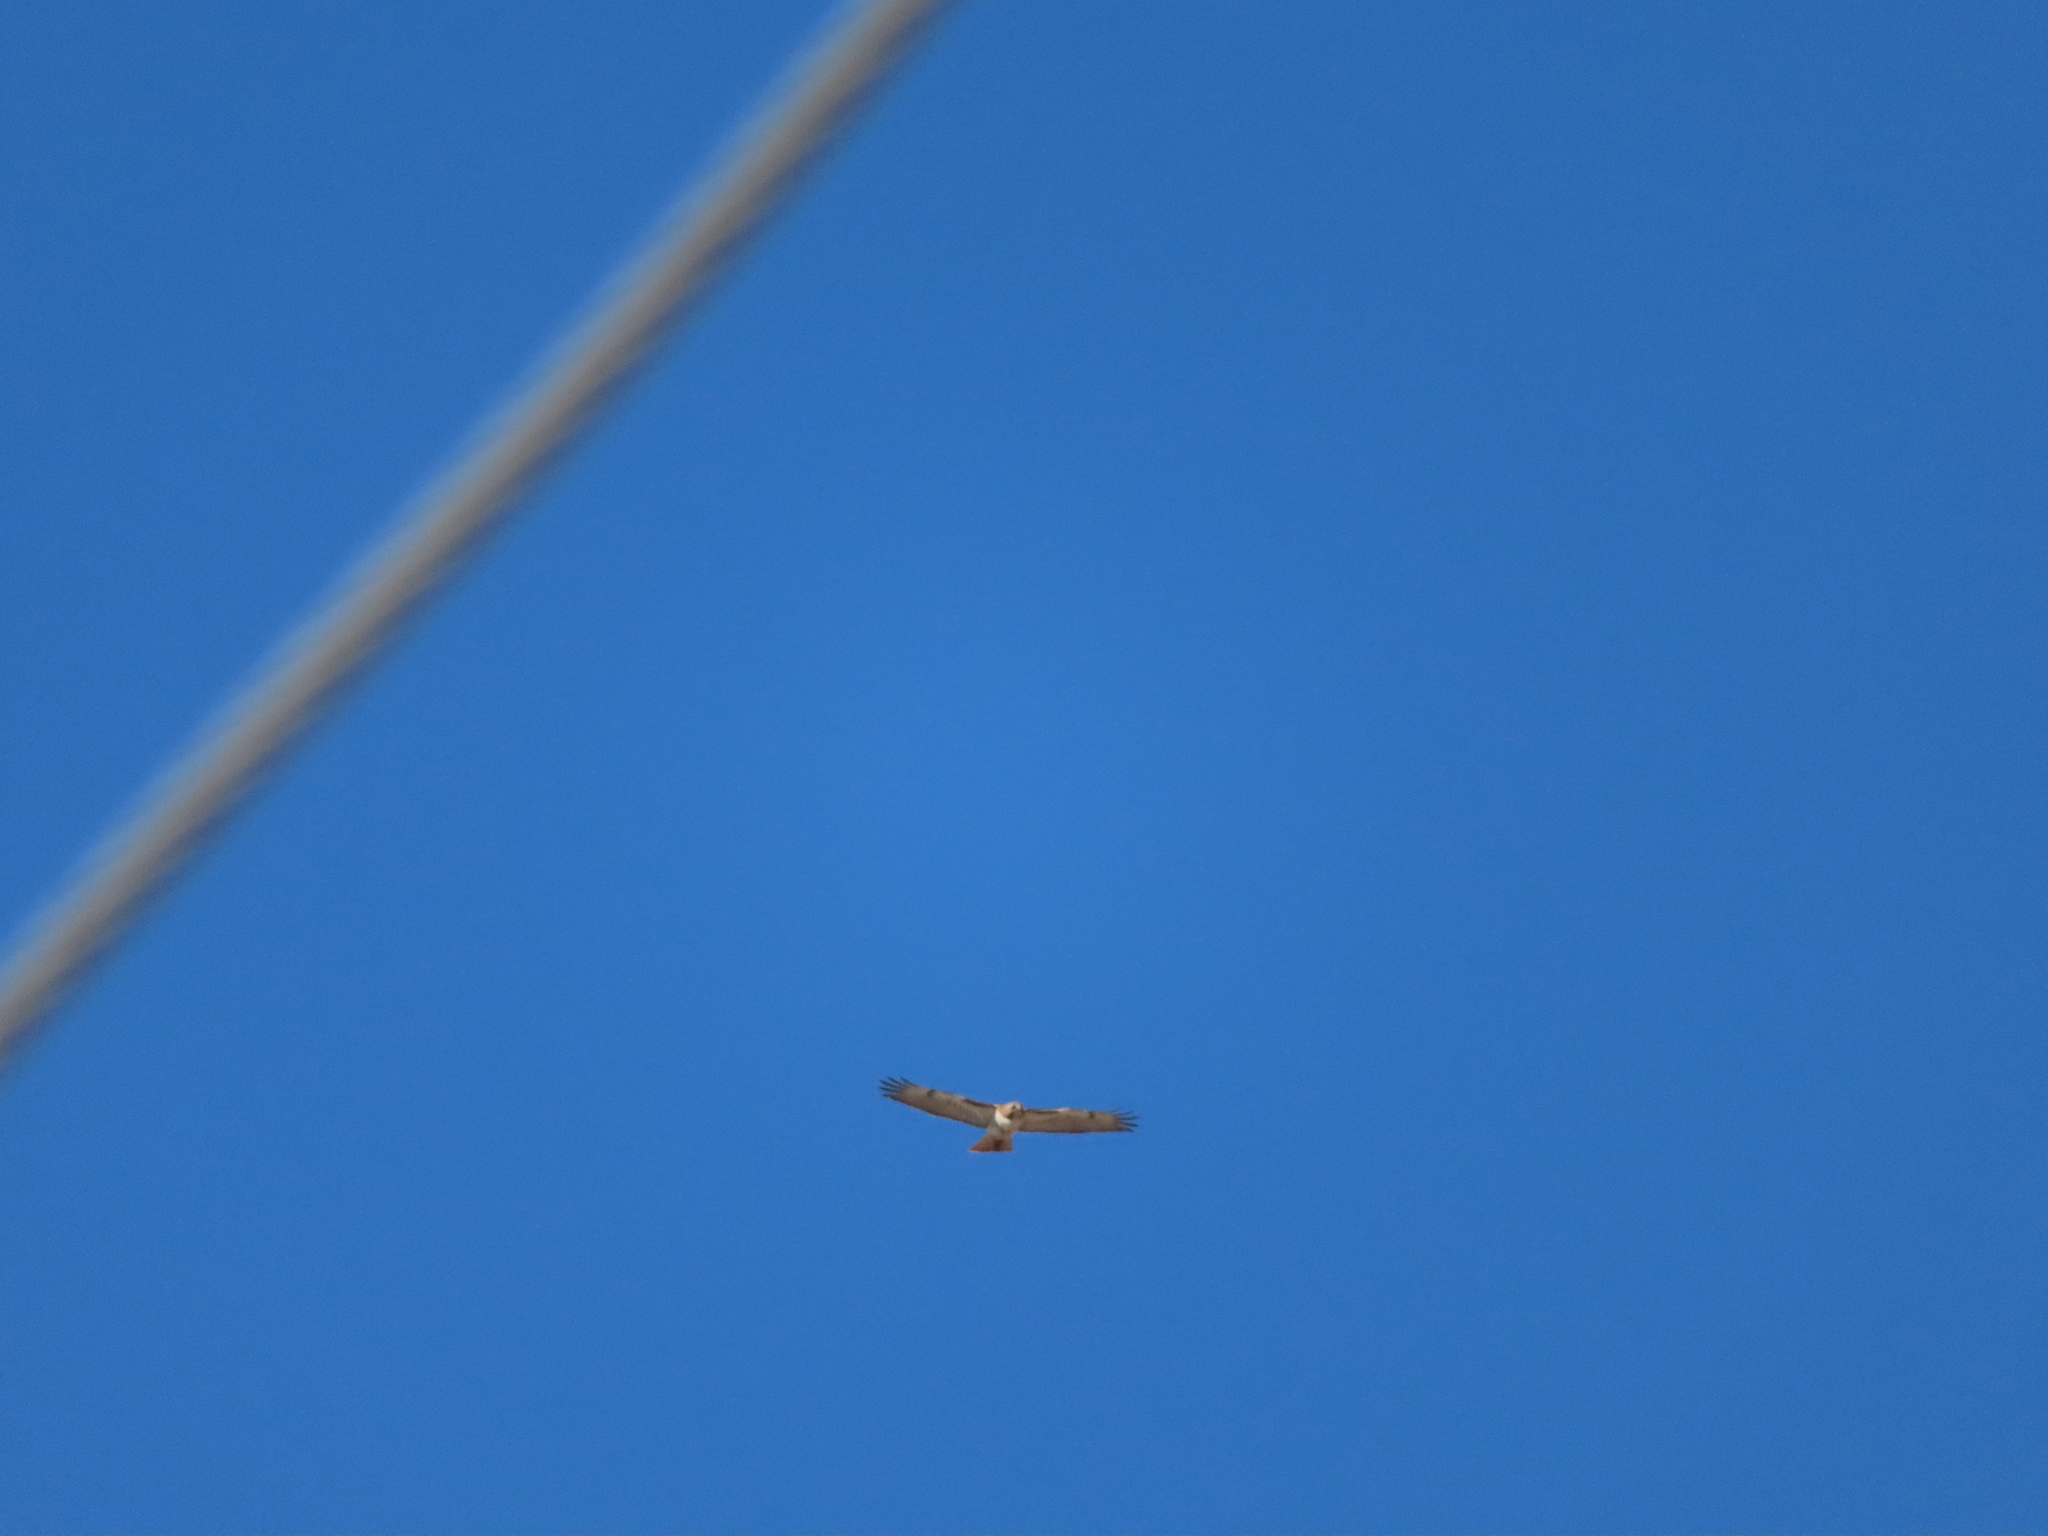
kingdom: Animalia
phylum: Chordata
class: Aves
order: Accipitriformes
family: Accipitridae
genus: Buteo
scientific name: Buteo jamaicensis
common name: Red-tailed hawk
